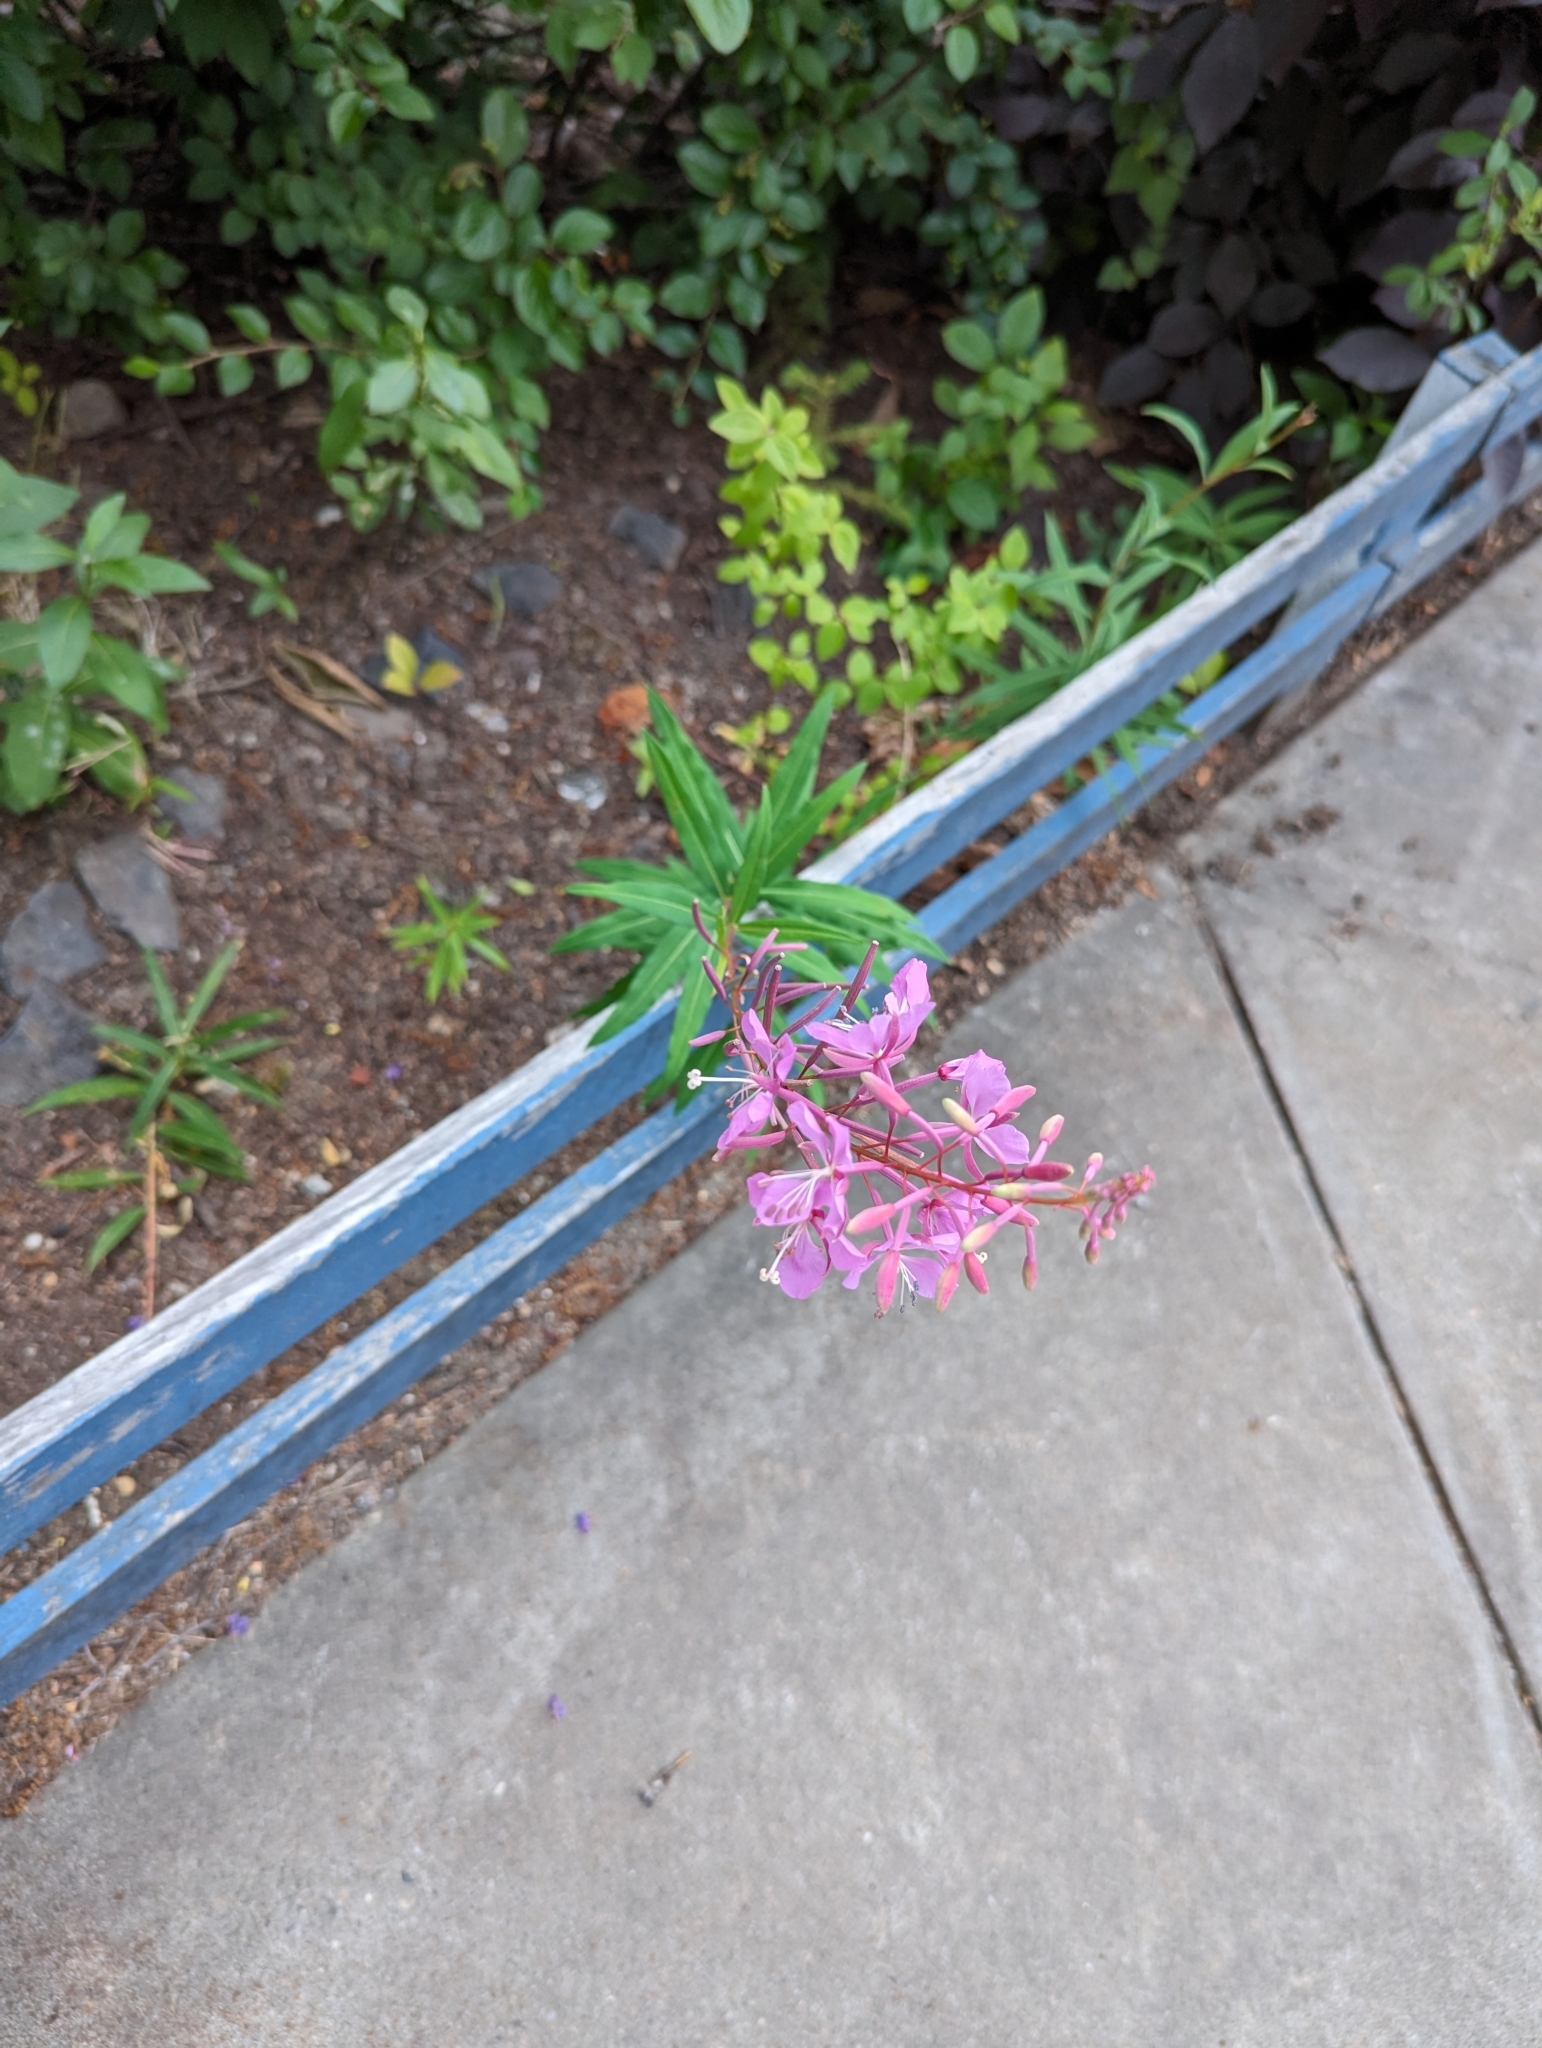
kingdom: Plantae
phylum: Tracheophyta
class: Magnoliopsida
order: Myrtales
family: Onagraceae
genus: Chamaenerion
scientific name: Chamaenerion angustifolium
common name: Fireweed
